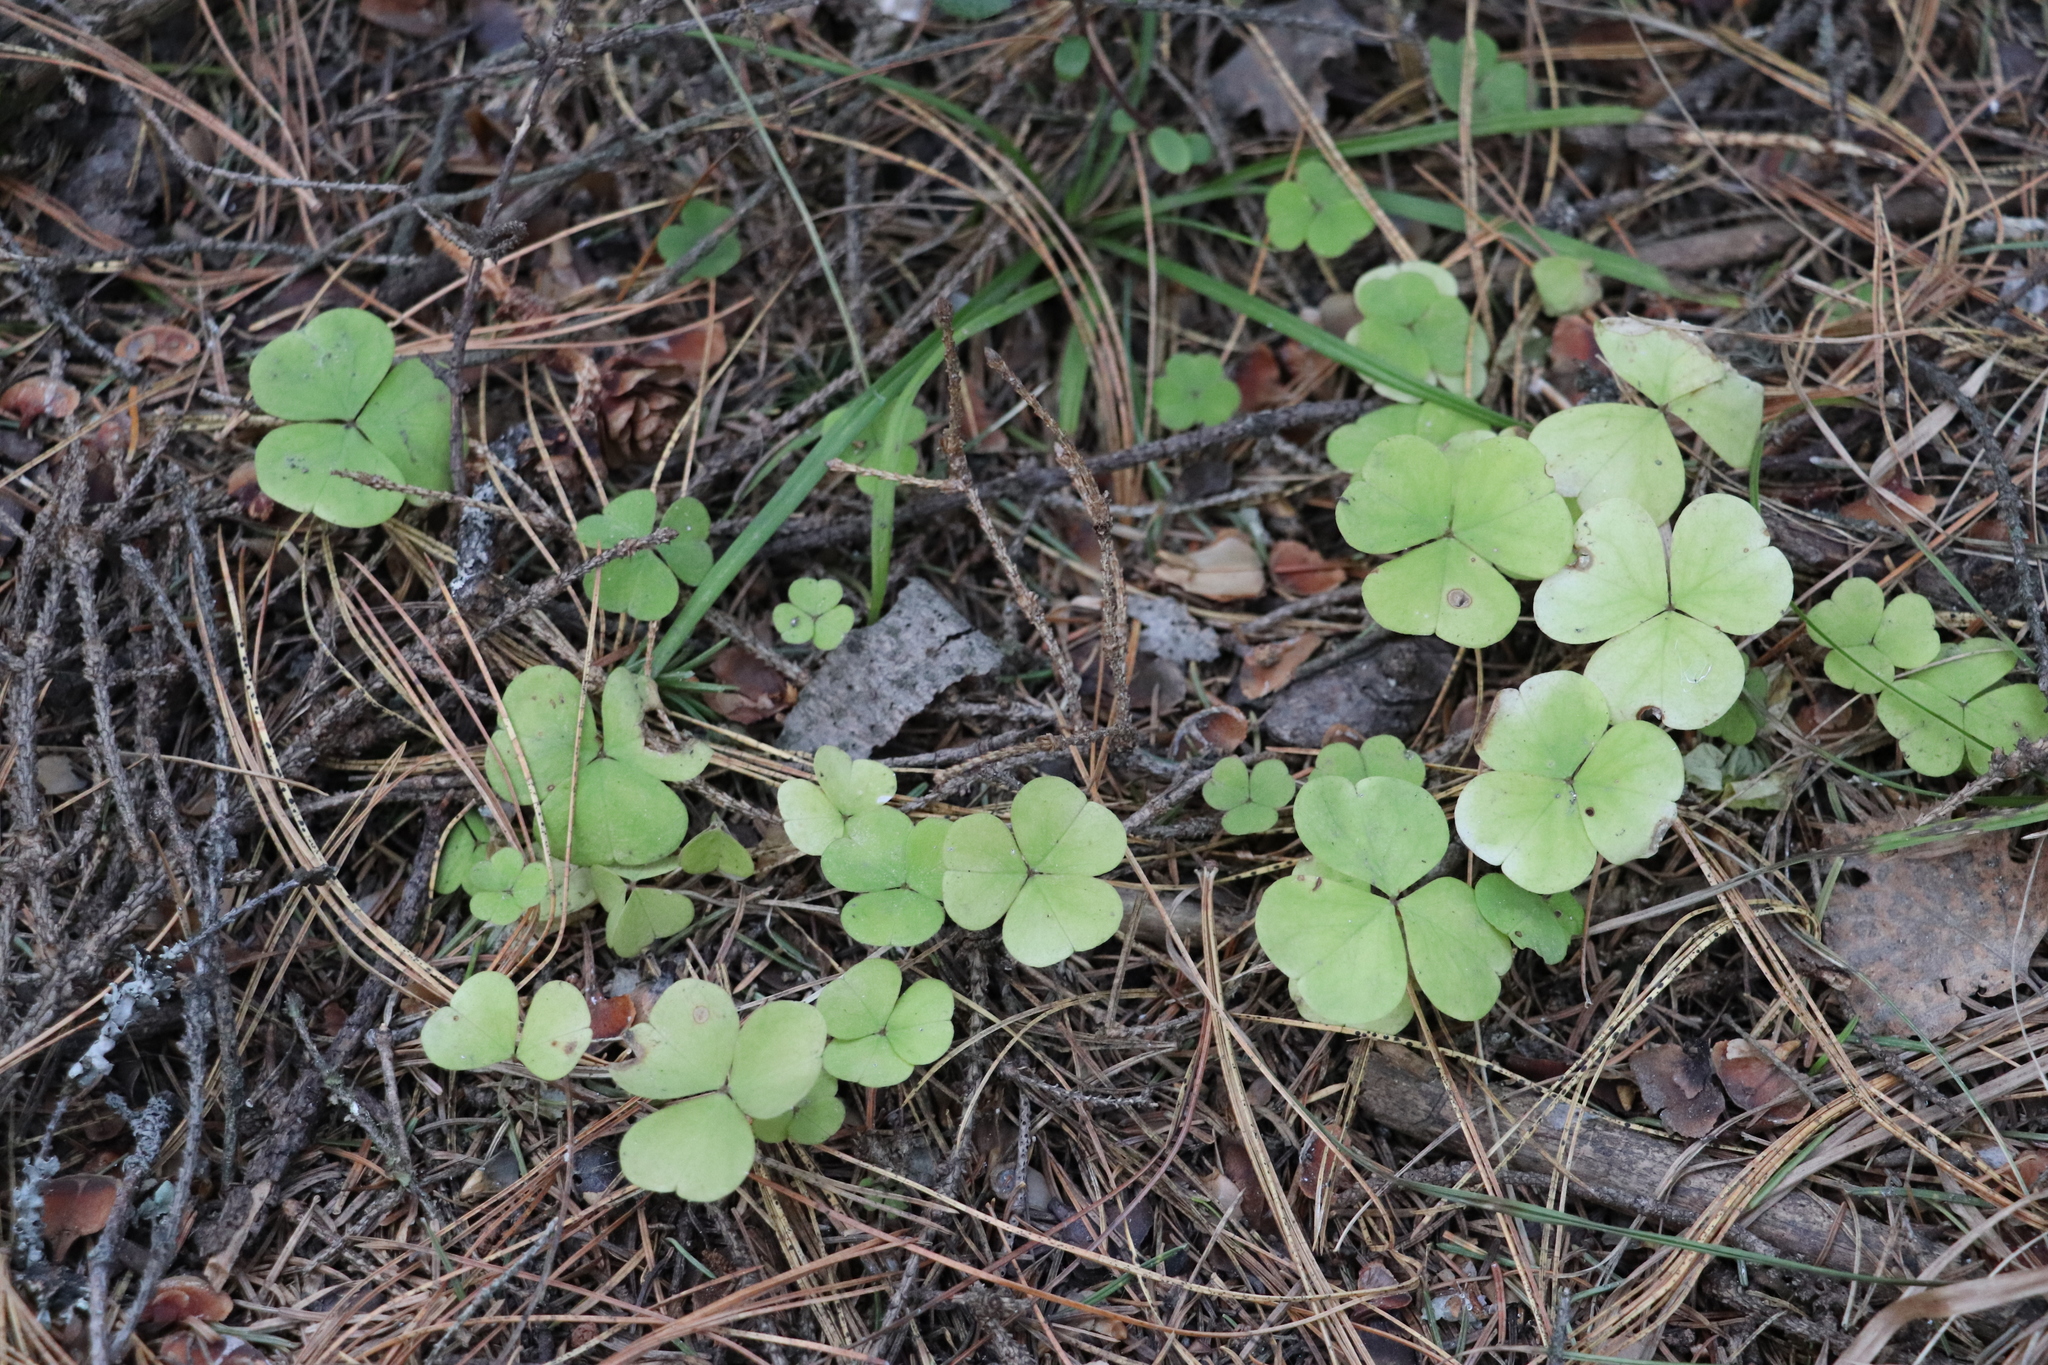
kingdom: Plantae
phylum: Tracheophyta
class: Magnoliopsida
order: Oxalidales
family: Oxalidaceae
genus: Oxalis
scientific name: Oxalis acetosella
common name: Wood-sorrel
